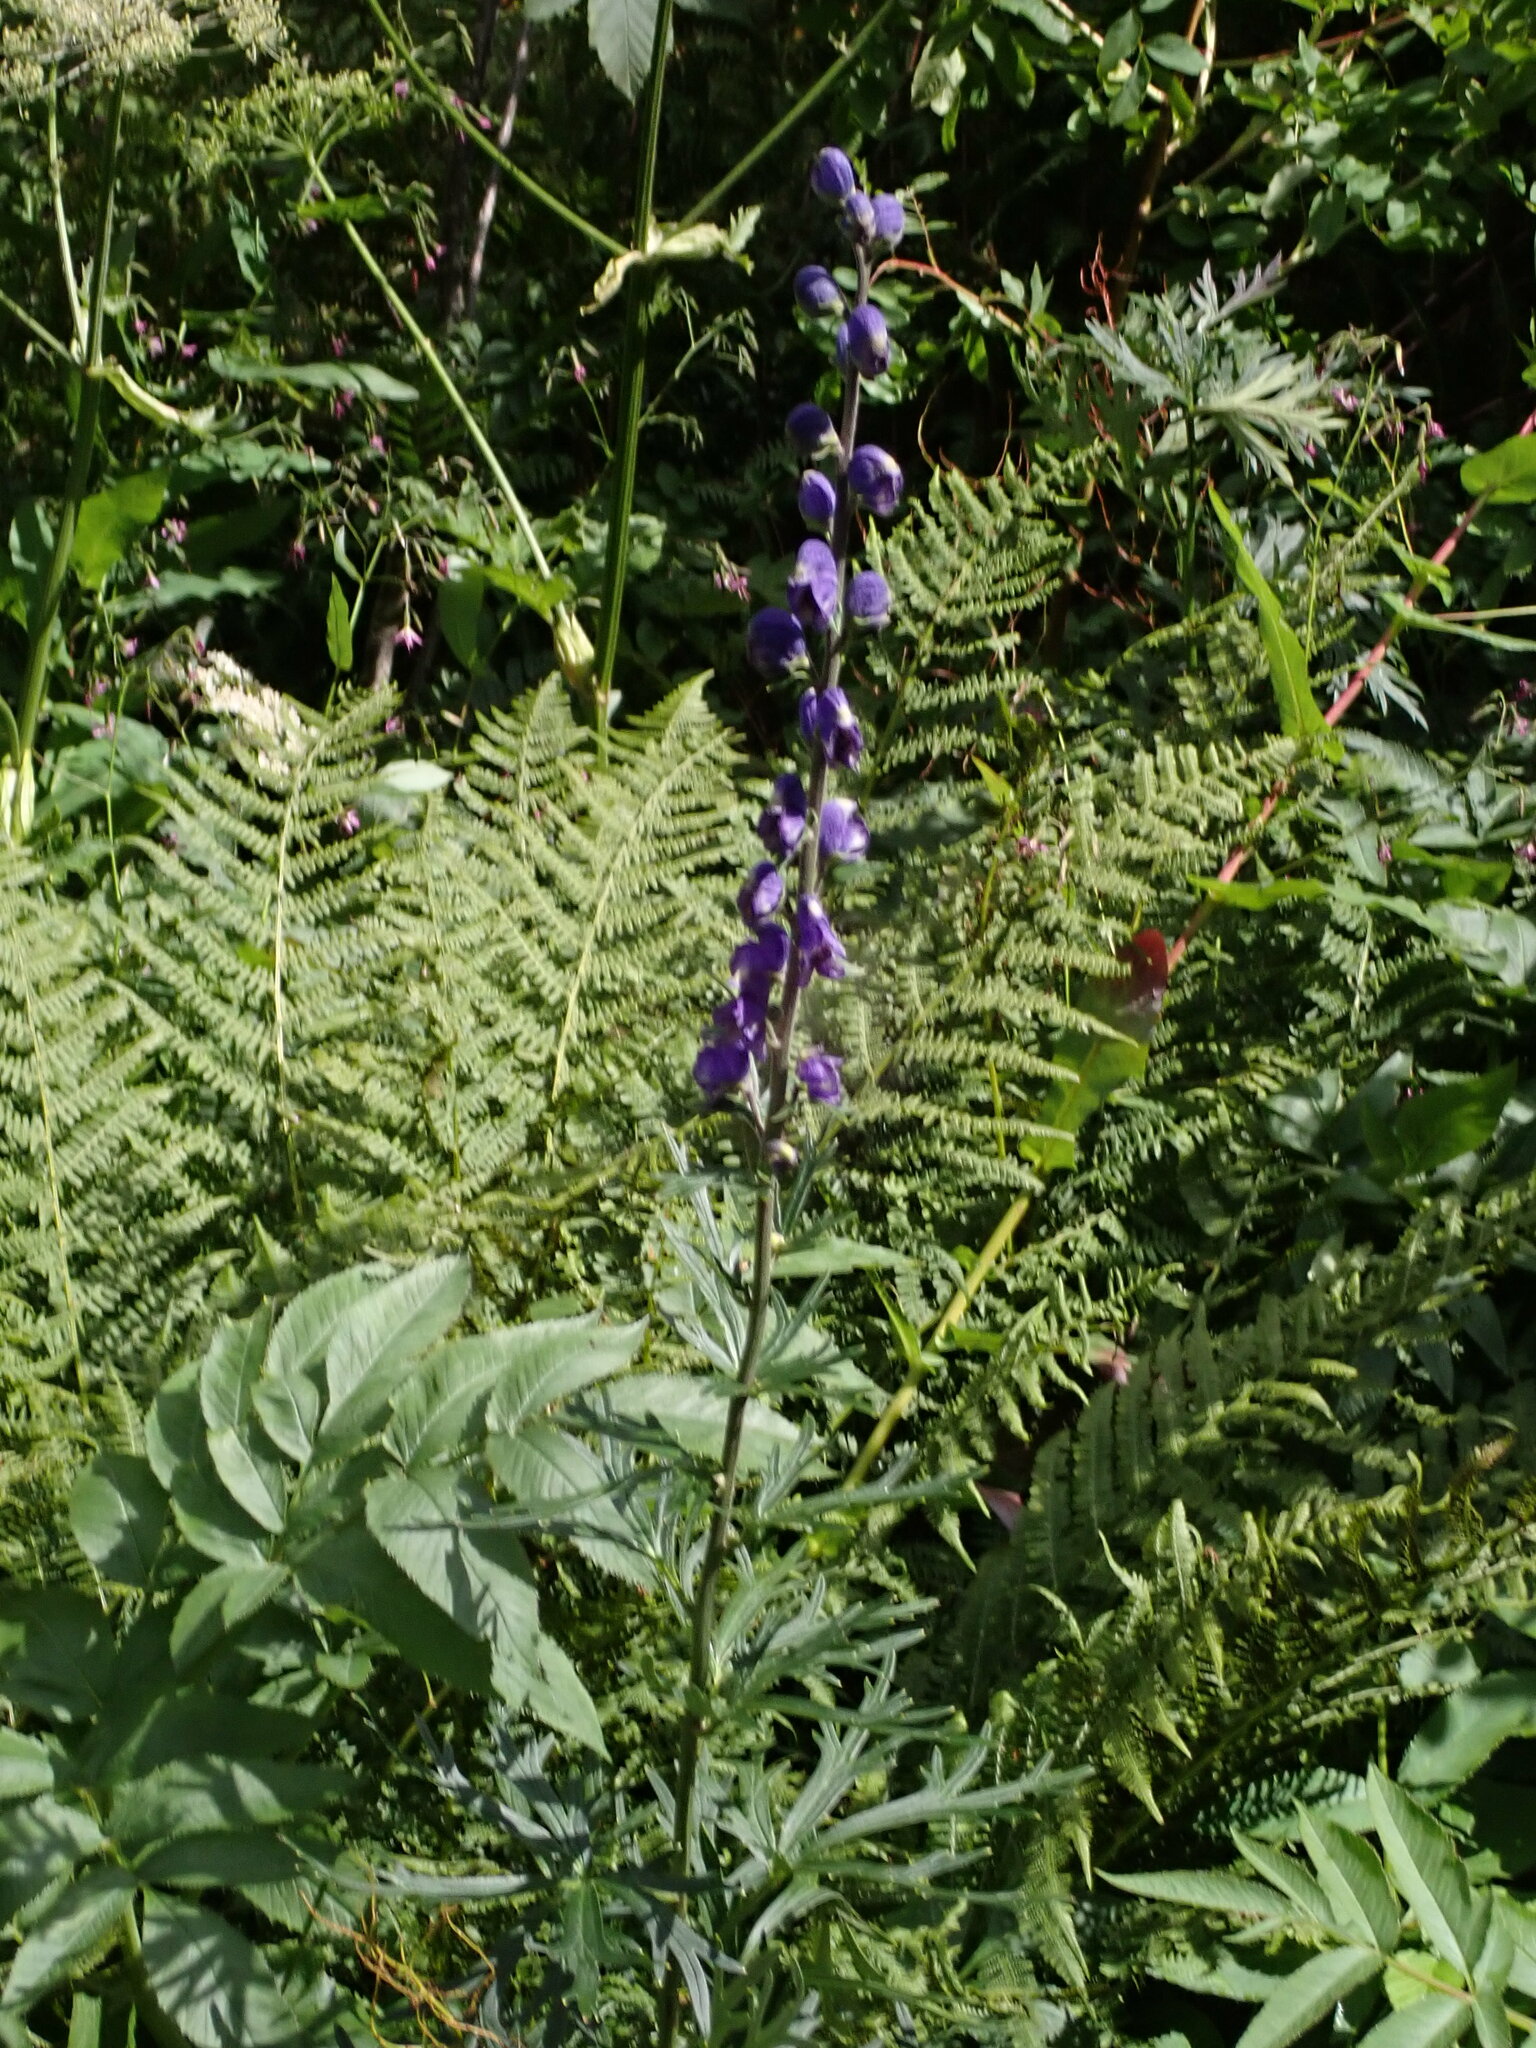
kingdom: Plantae
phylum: Tracheophyta
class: Magnoliopsida
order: Ranunculales
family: Ranunculaceae
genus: Aconitum
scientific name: Aconitum napellus
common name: Garden monkshood
